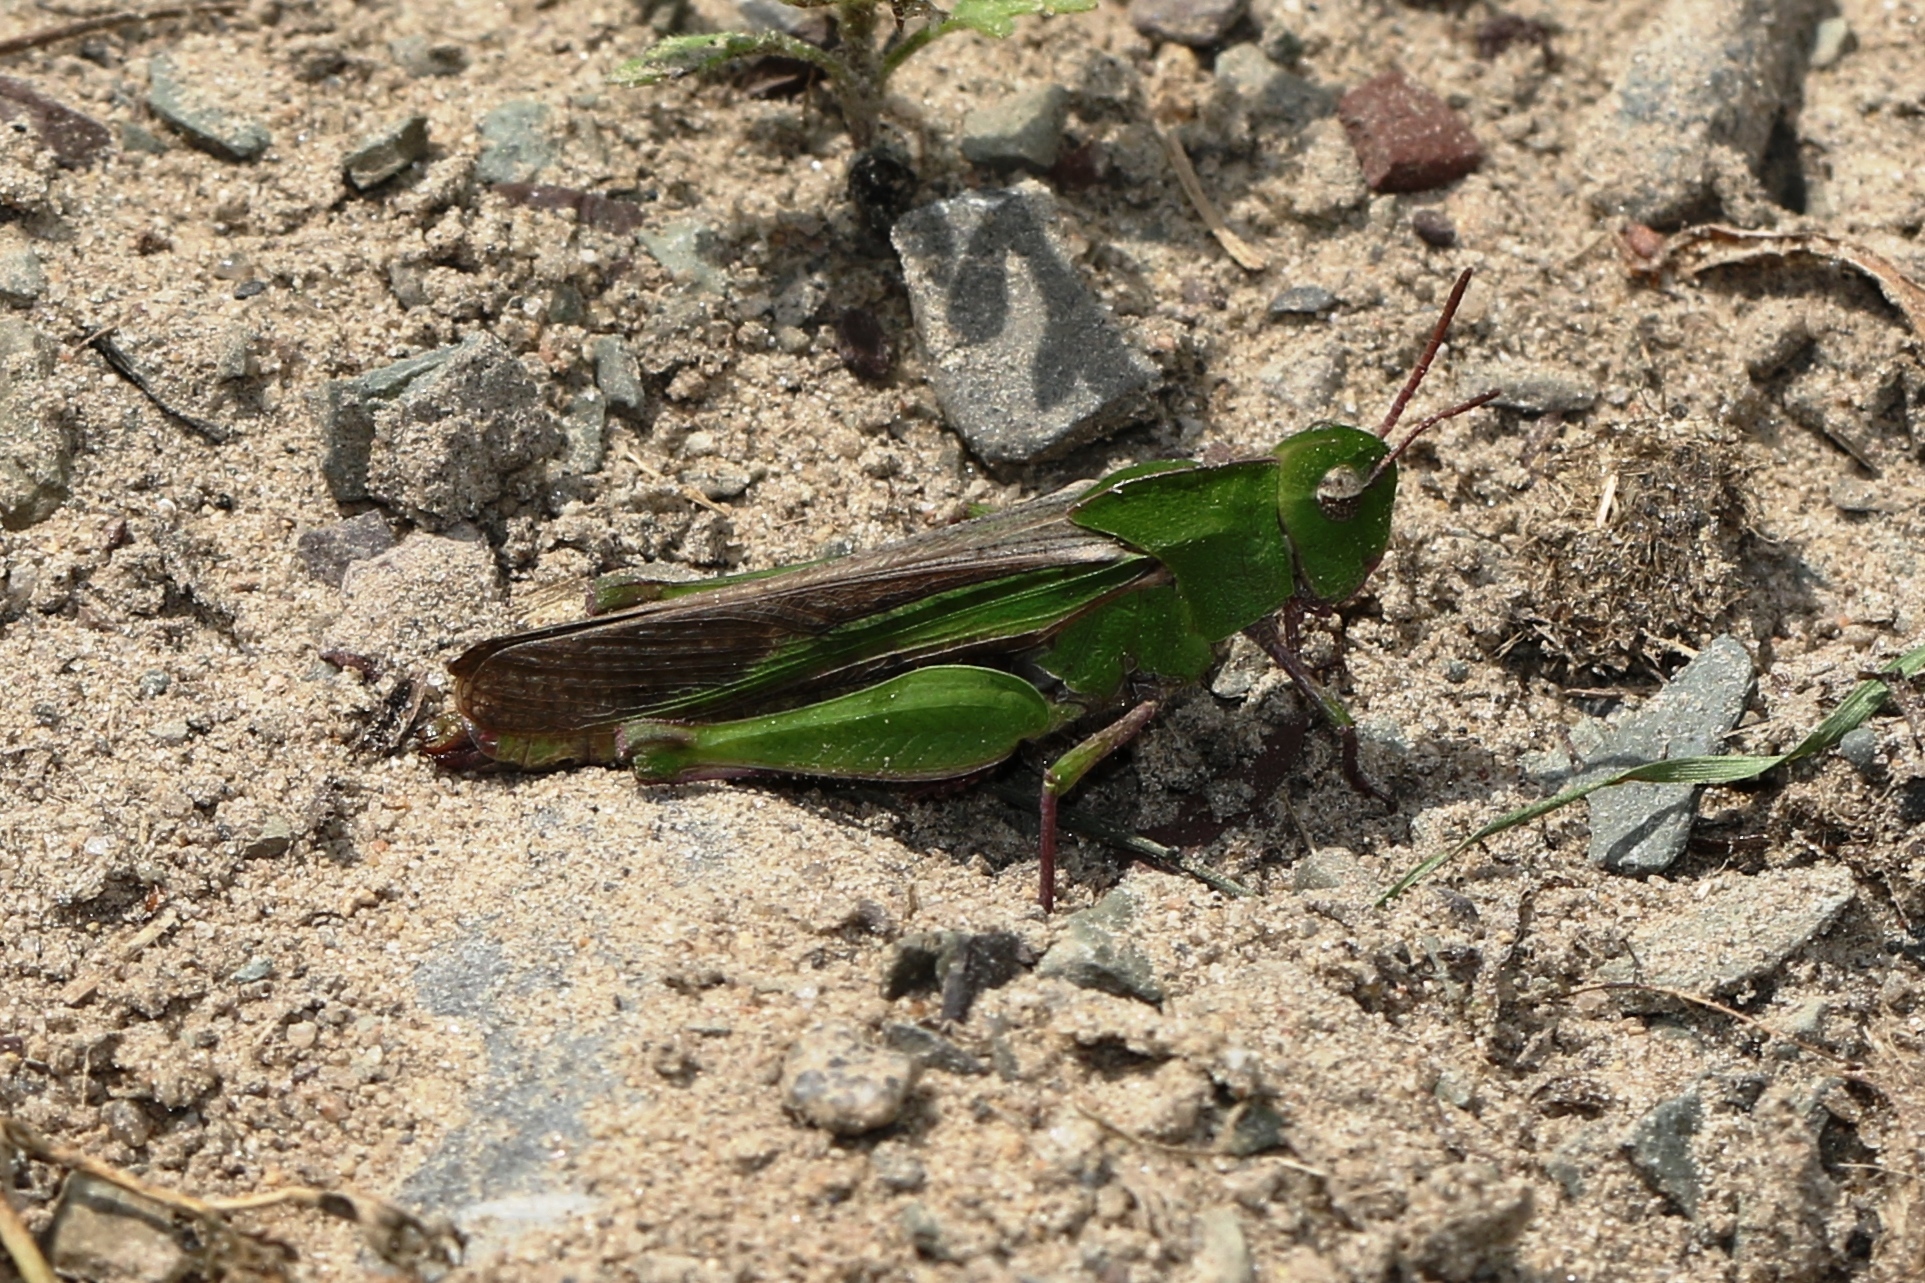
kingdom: Animalia
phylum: Arthropoda
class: Insecta
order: Orthoptera
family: Acrididae
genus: Chortophaga
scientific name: Chortophaga viridifasciata
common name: Green-striped grasshopper
